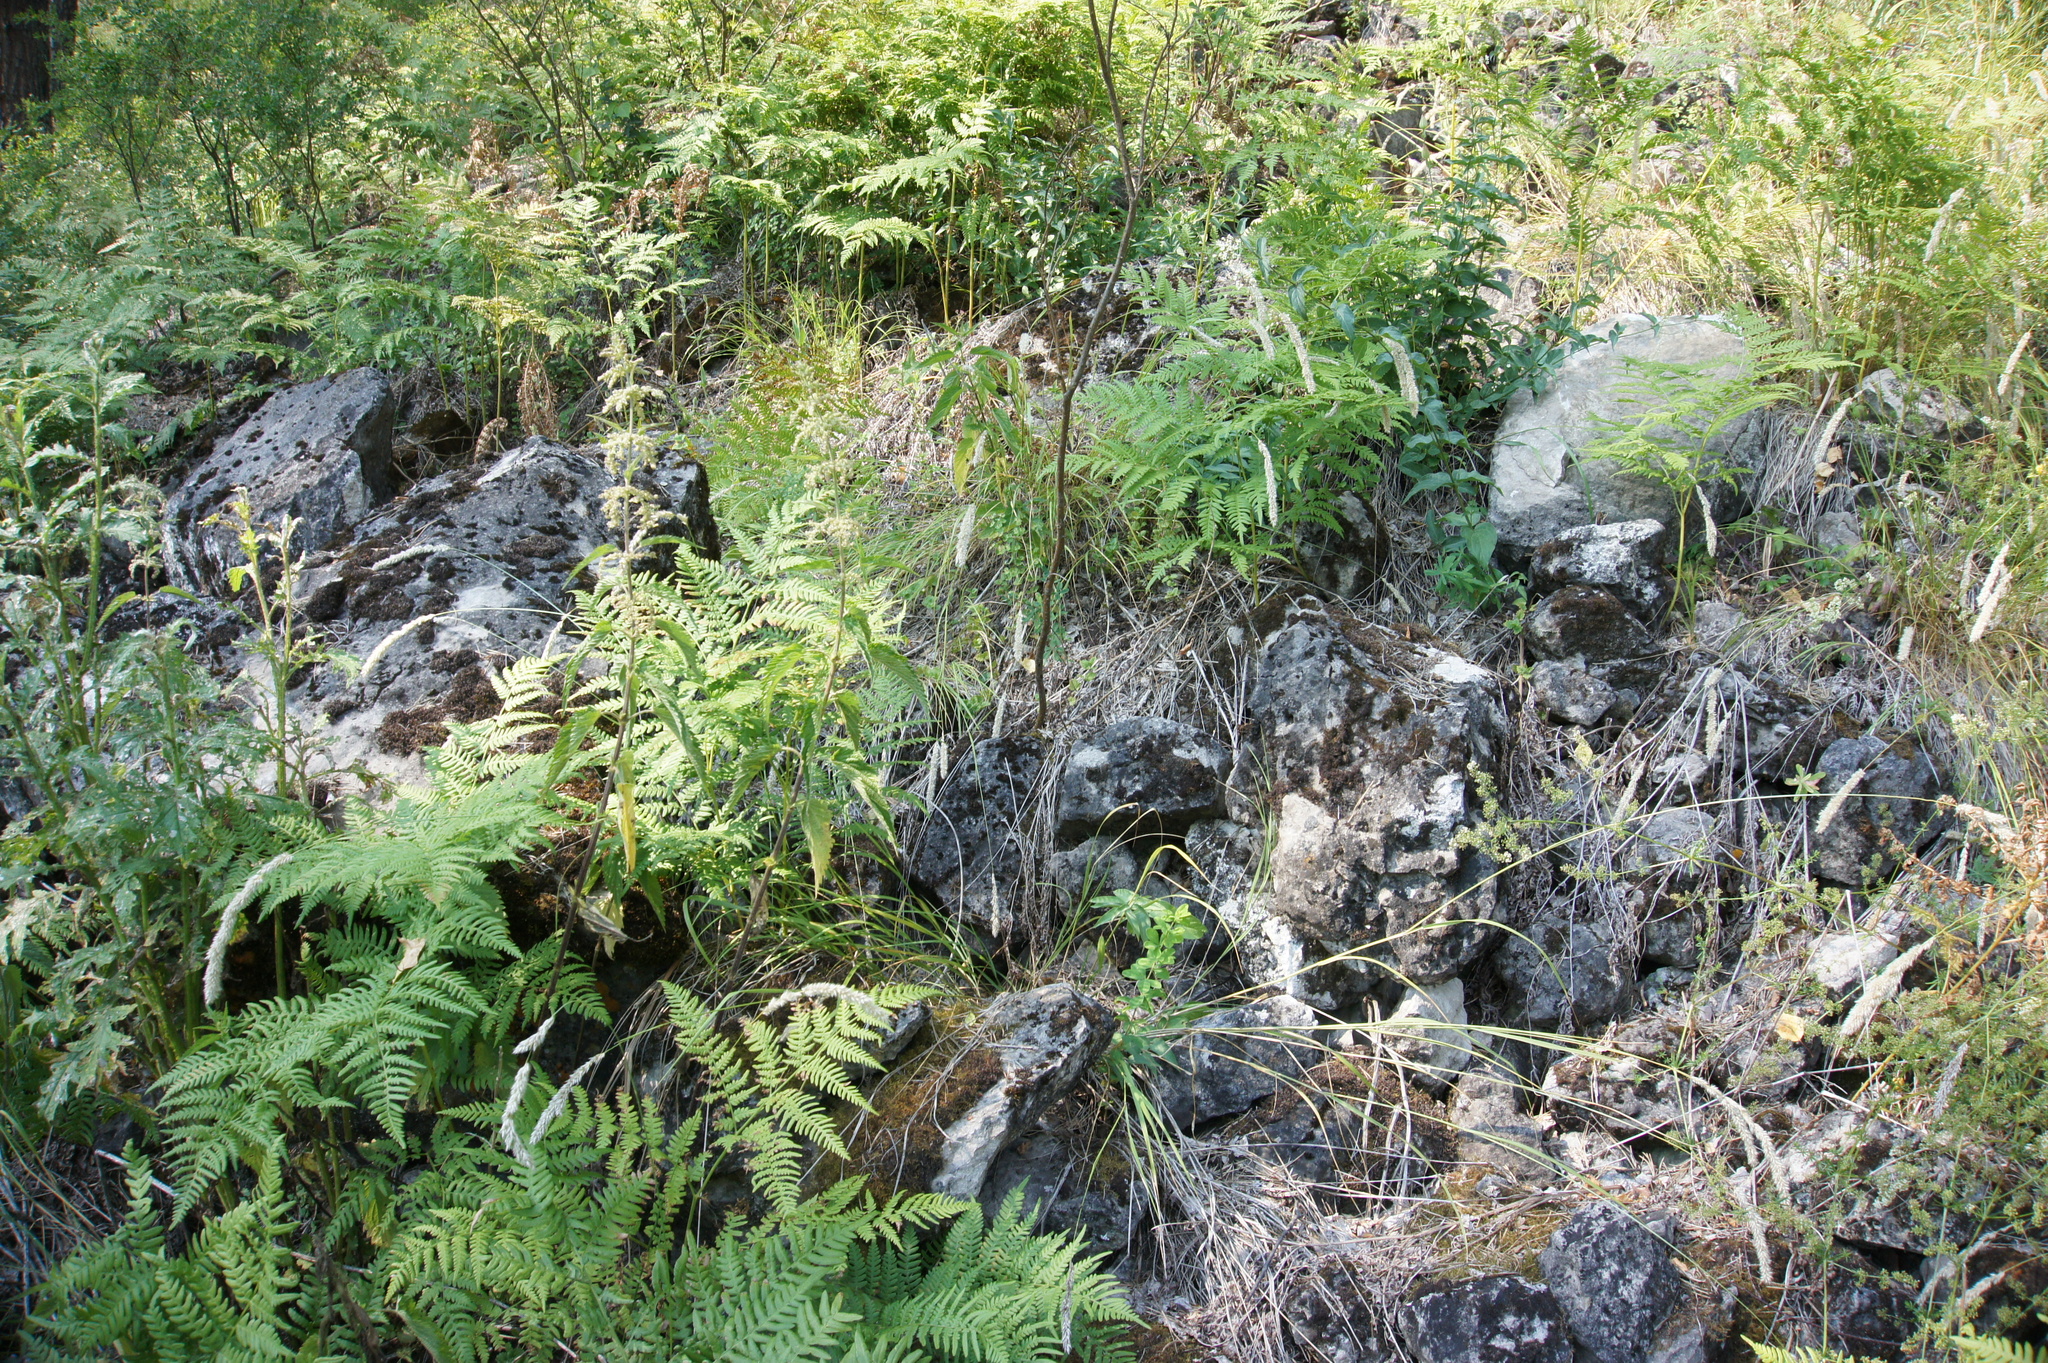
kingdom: Plantae
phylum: Tracheophyta
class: Polypodiopsida
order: Polypodiales
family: Dennstaedtiaceae
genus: Pteridium
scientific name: Pteridium aquilinum
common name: Bracken
